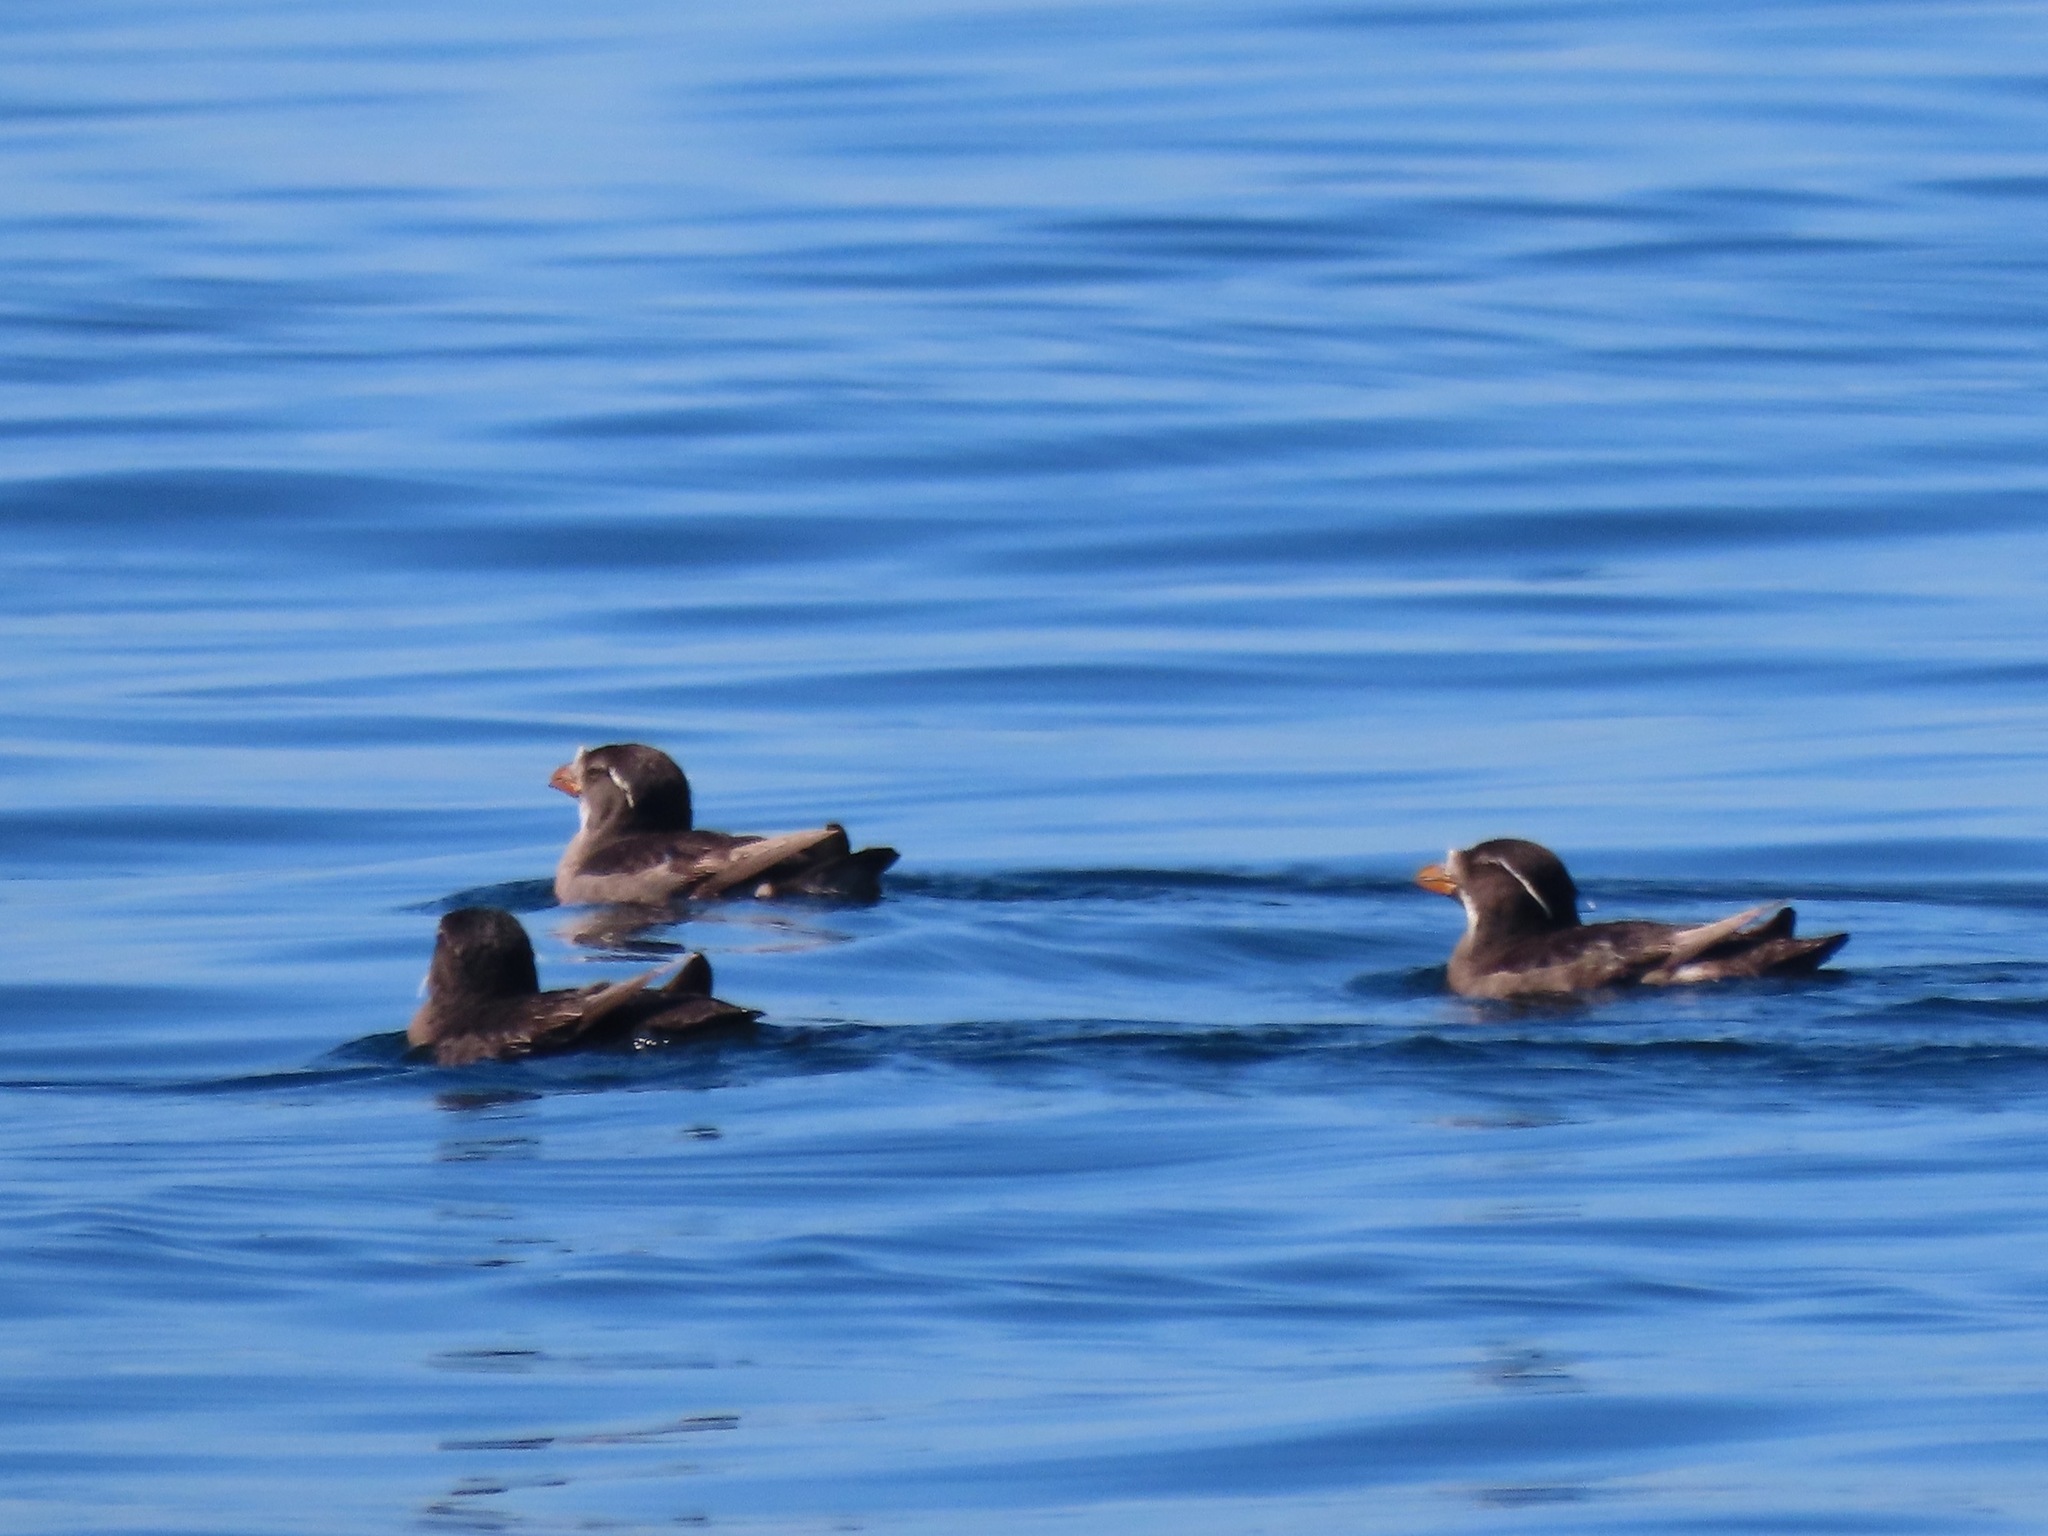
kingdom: Animalia
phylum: Chordata
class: Aves
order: Charadriiformes
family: Alcidae
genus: Cerorhinca
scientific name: Cerorhinca monocerata
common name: Rhinoceros auklet
